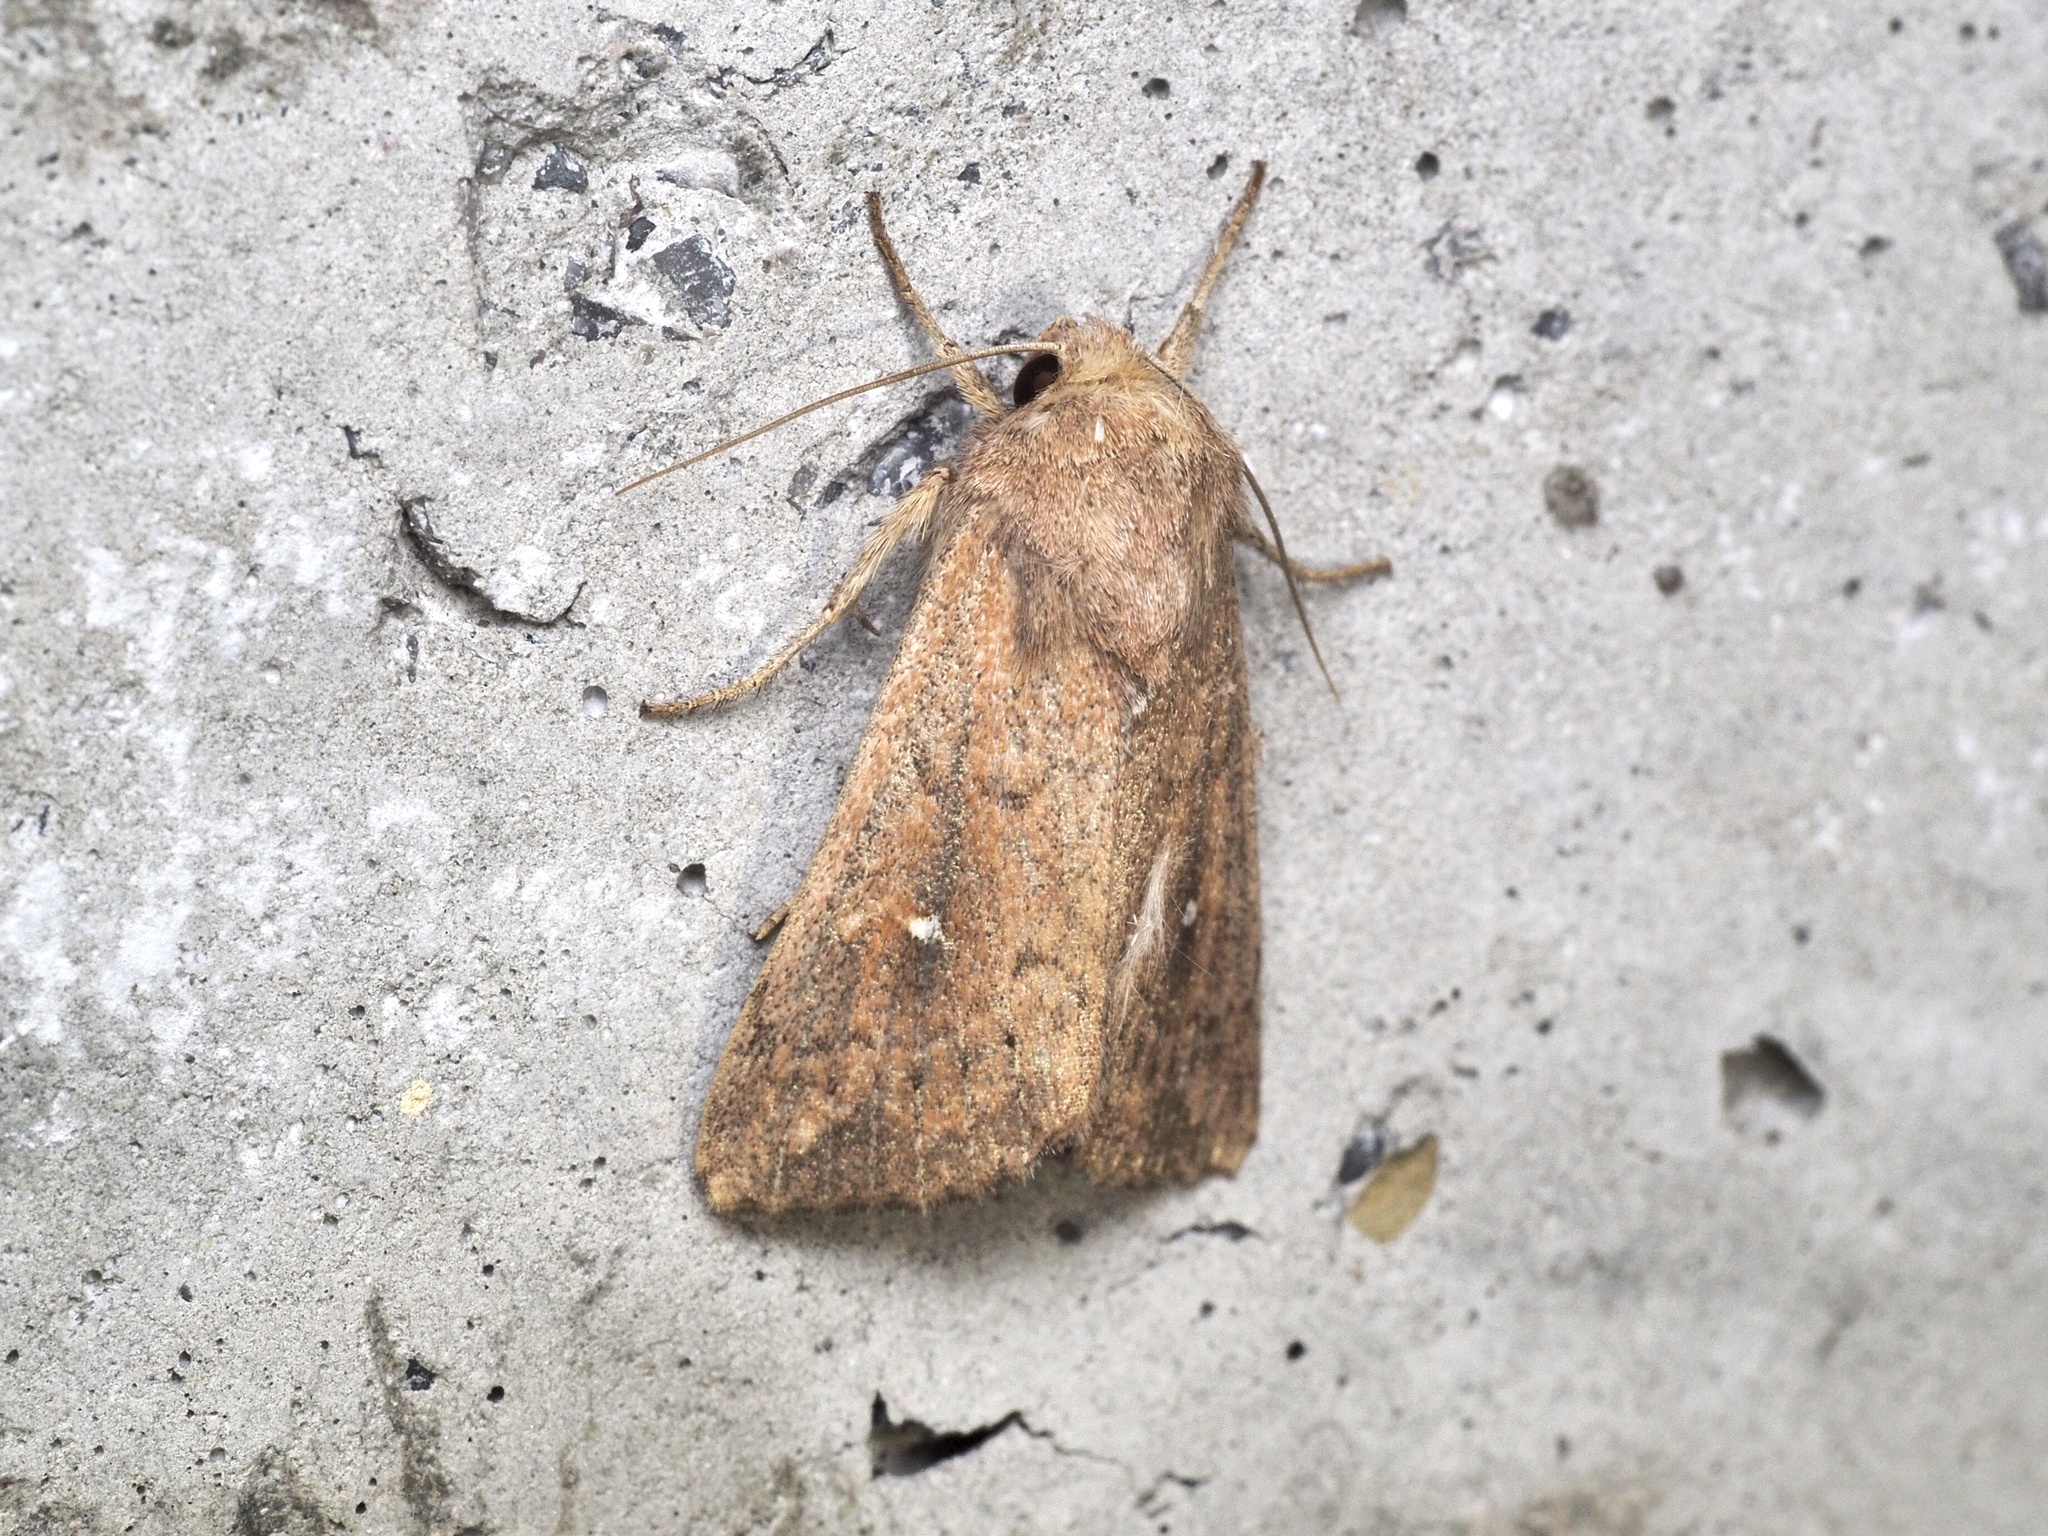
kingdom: Animalia
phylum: Arthropoda
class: Insecta
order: Lepidoptera
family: Noctuidae
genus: Mythimna
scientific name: Mythimna albipuncta
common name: White-point
